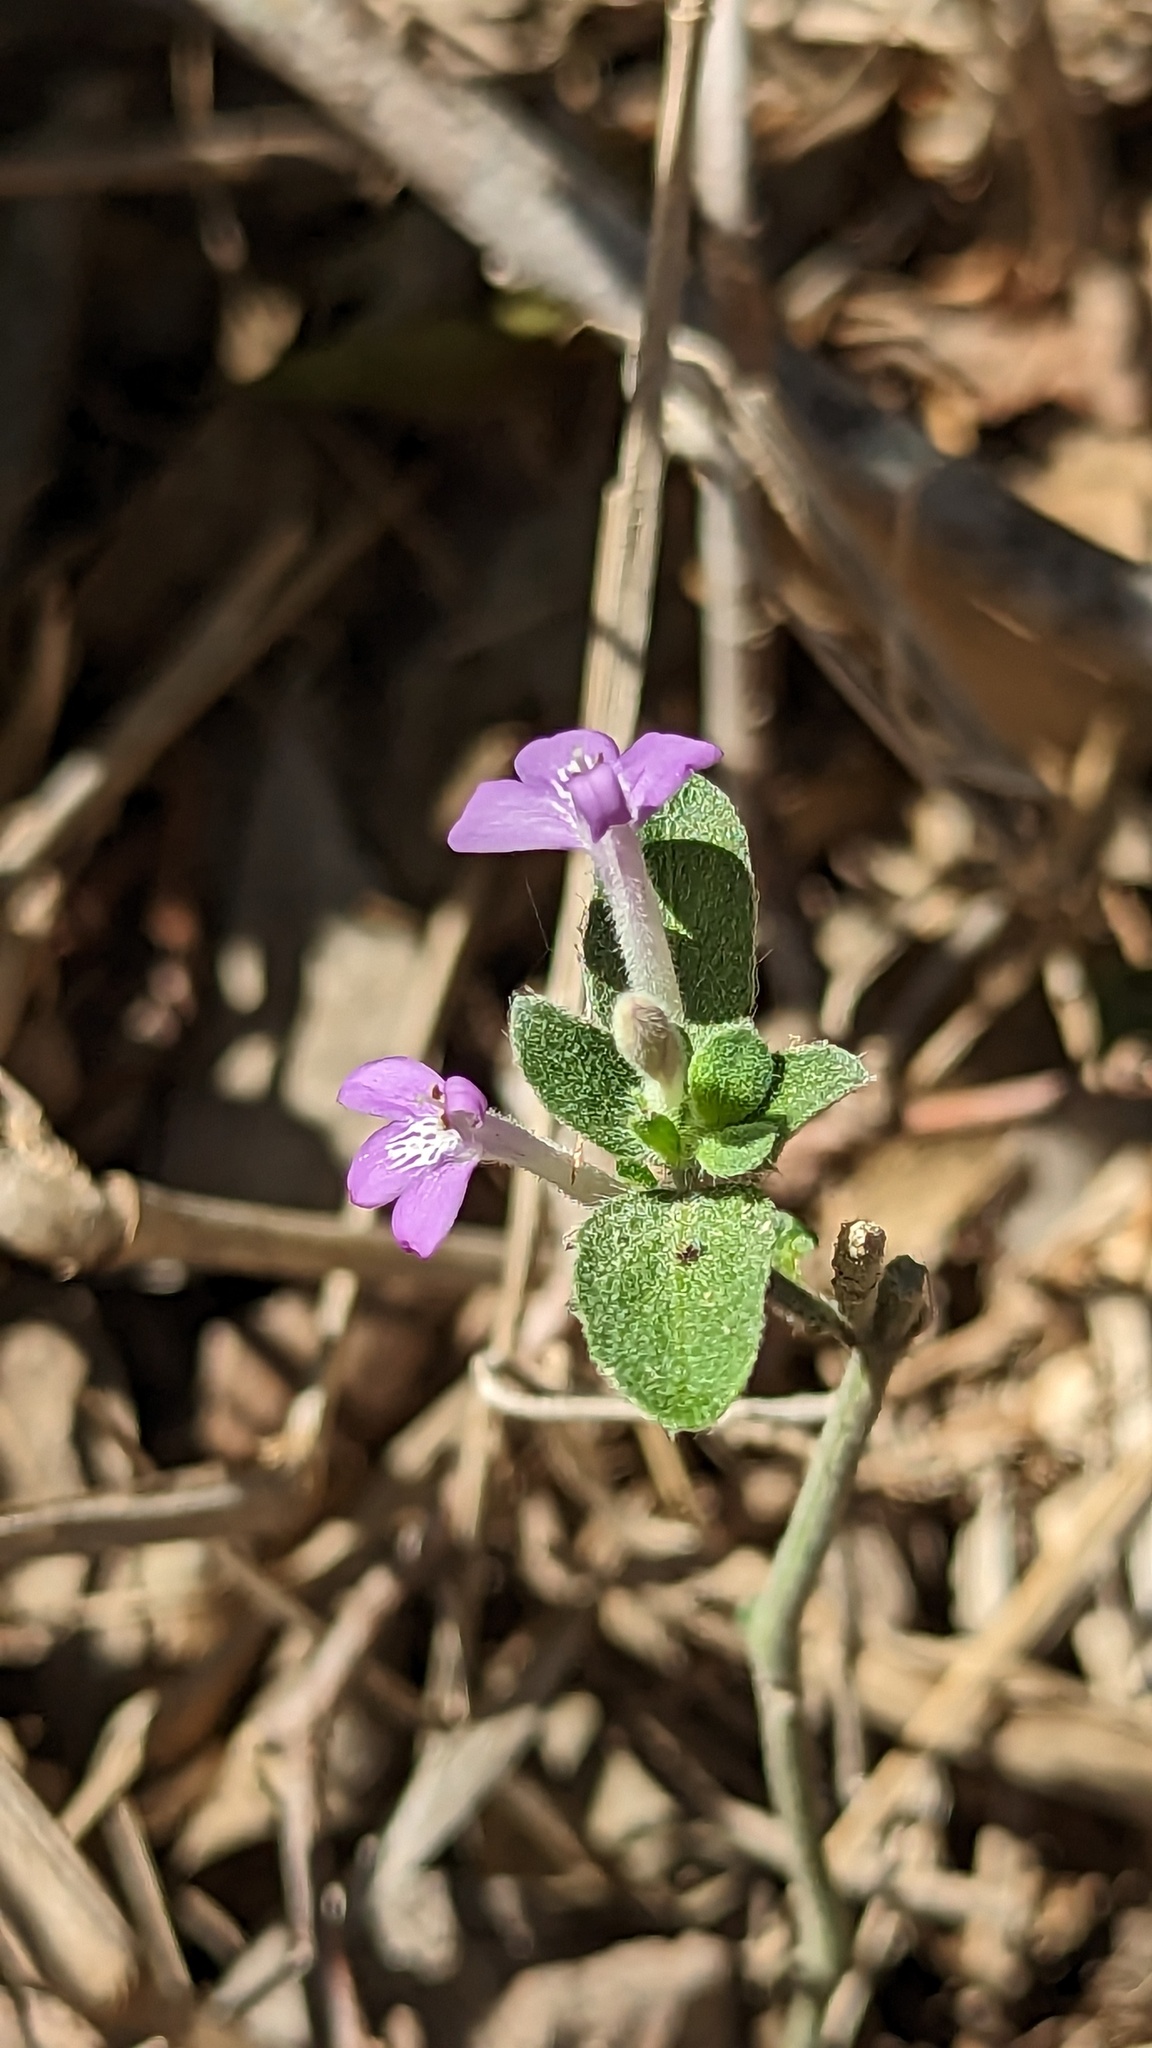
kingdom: Plantae
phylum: Tracheophyta
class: Magnoliopsida
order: Lamiales
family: Acanthaceae
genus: Justicia
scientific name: Justicia pilosella
